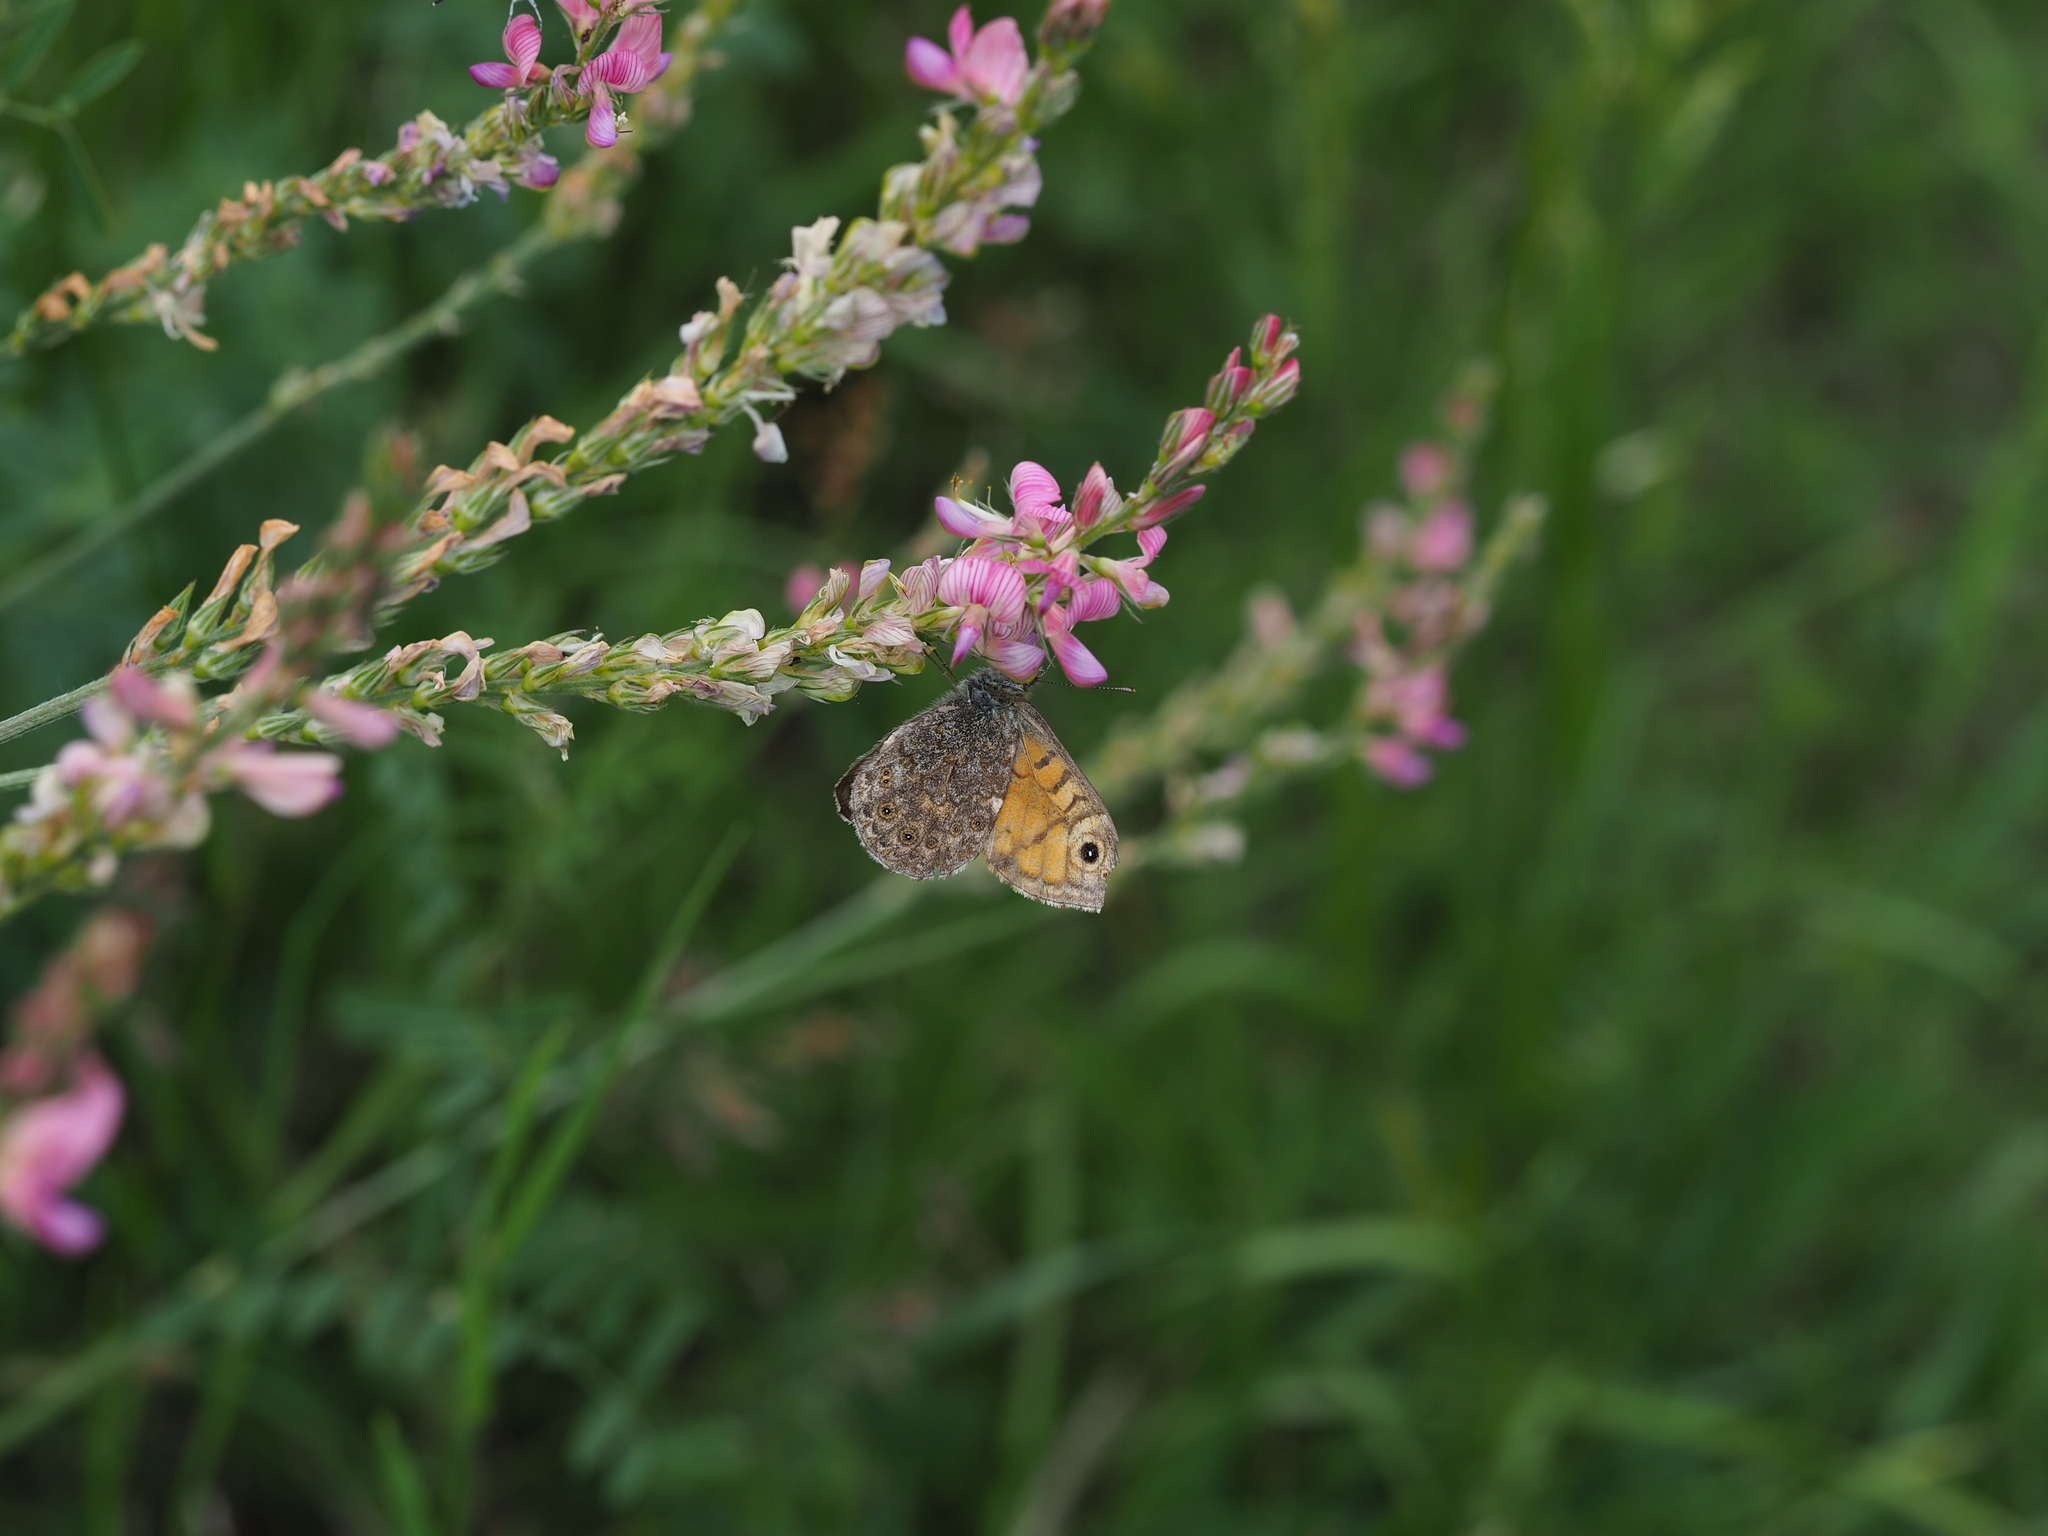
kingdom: Animalia
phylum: Arthropoda
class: Insecta
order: Lepidoptera
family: Nymphalidae
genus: Pararge
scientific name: Pararge Lasiommata megera
